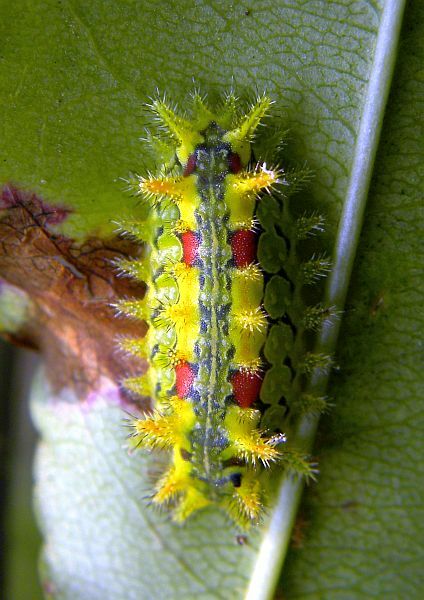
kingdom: Animalia
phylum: Arthropoda
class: Insecta
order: Lepidoptera
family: Limacodidae
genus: Euclea
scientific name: Euclea delphinii
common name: Spiny oak-slug moth
